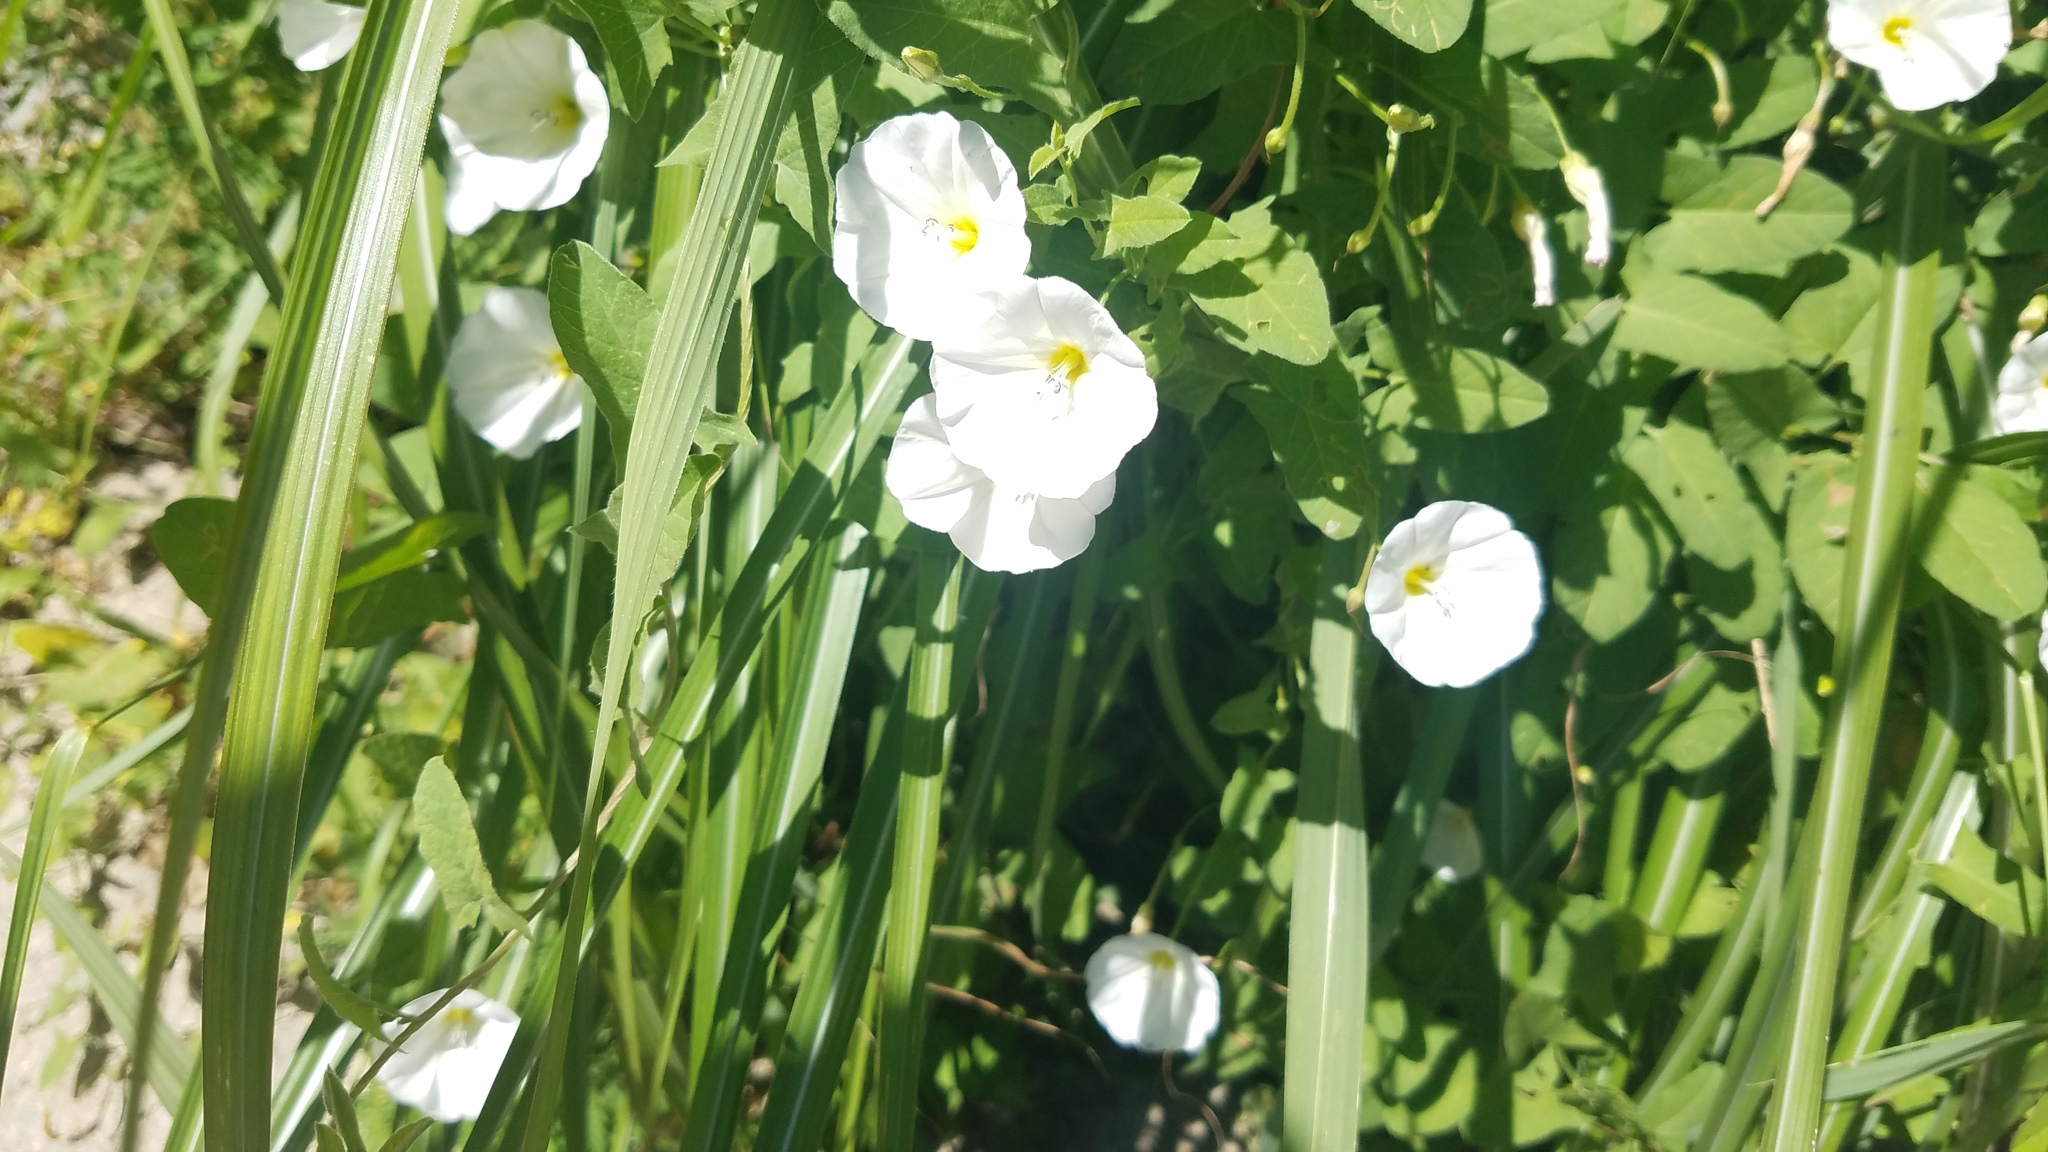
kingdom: Plantae
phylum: Tracheophyta
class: Magnoliopsida
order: Solanales
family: Convolvulaceae
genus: Convolvulus
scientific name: Convolvulus arvensis
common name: Field bindweed
